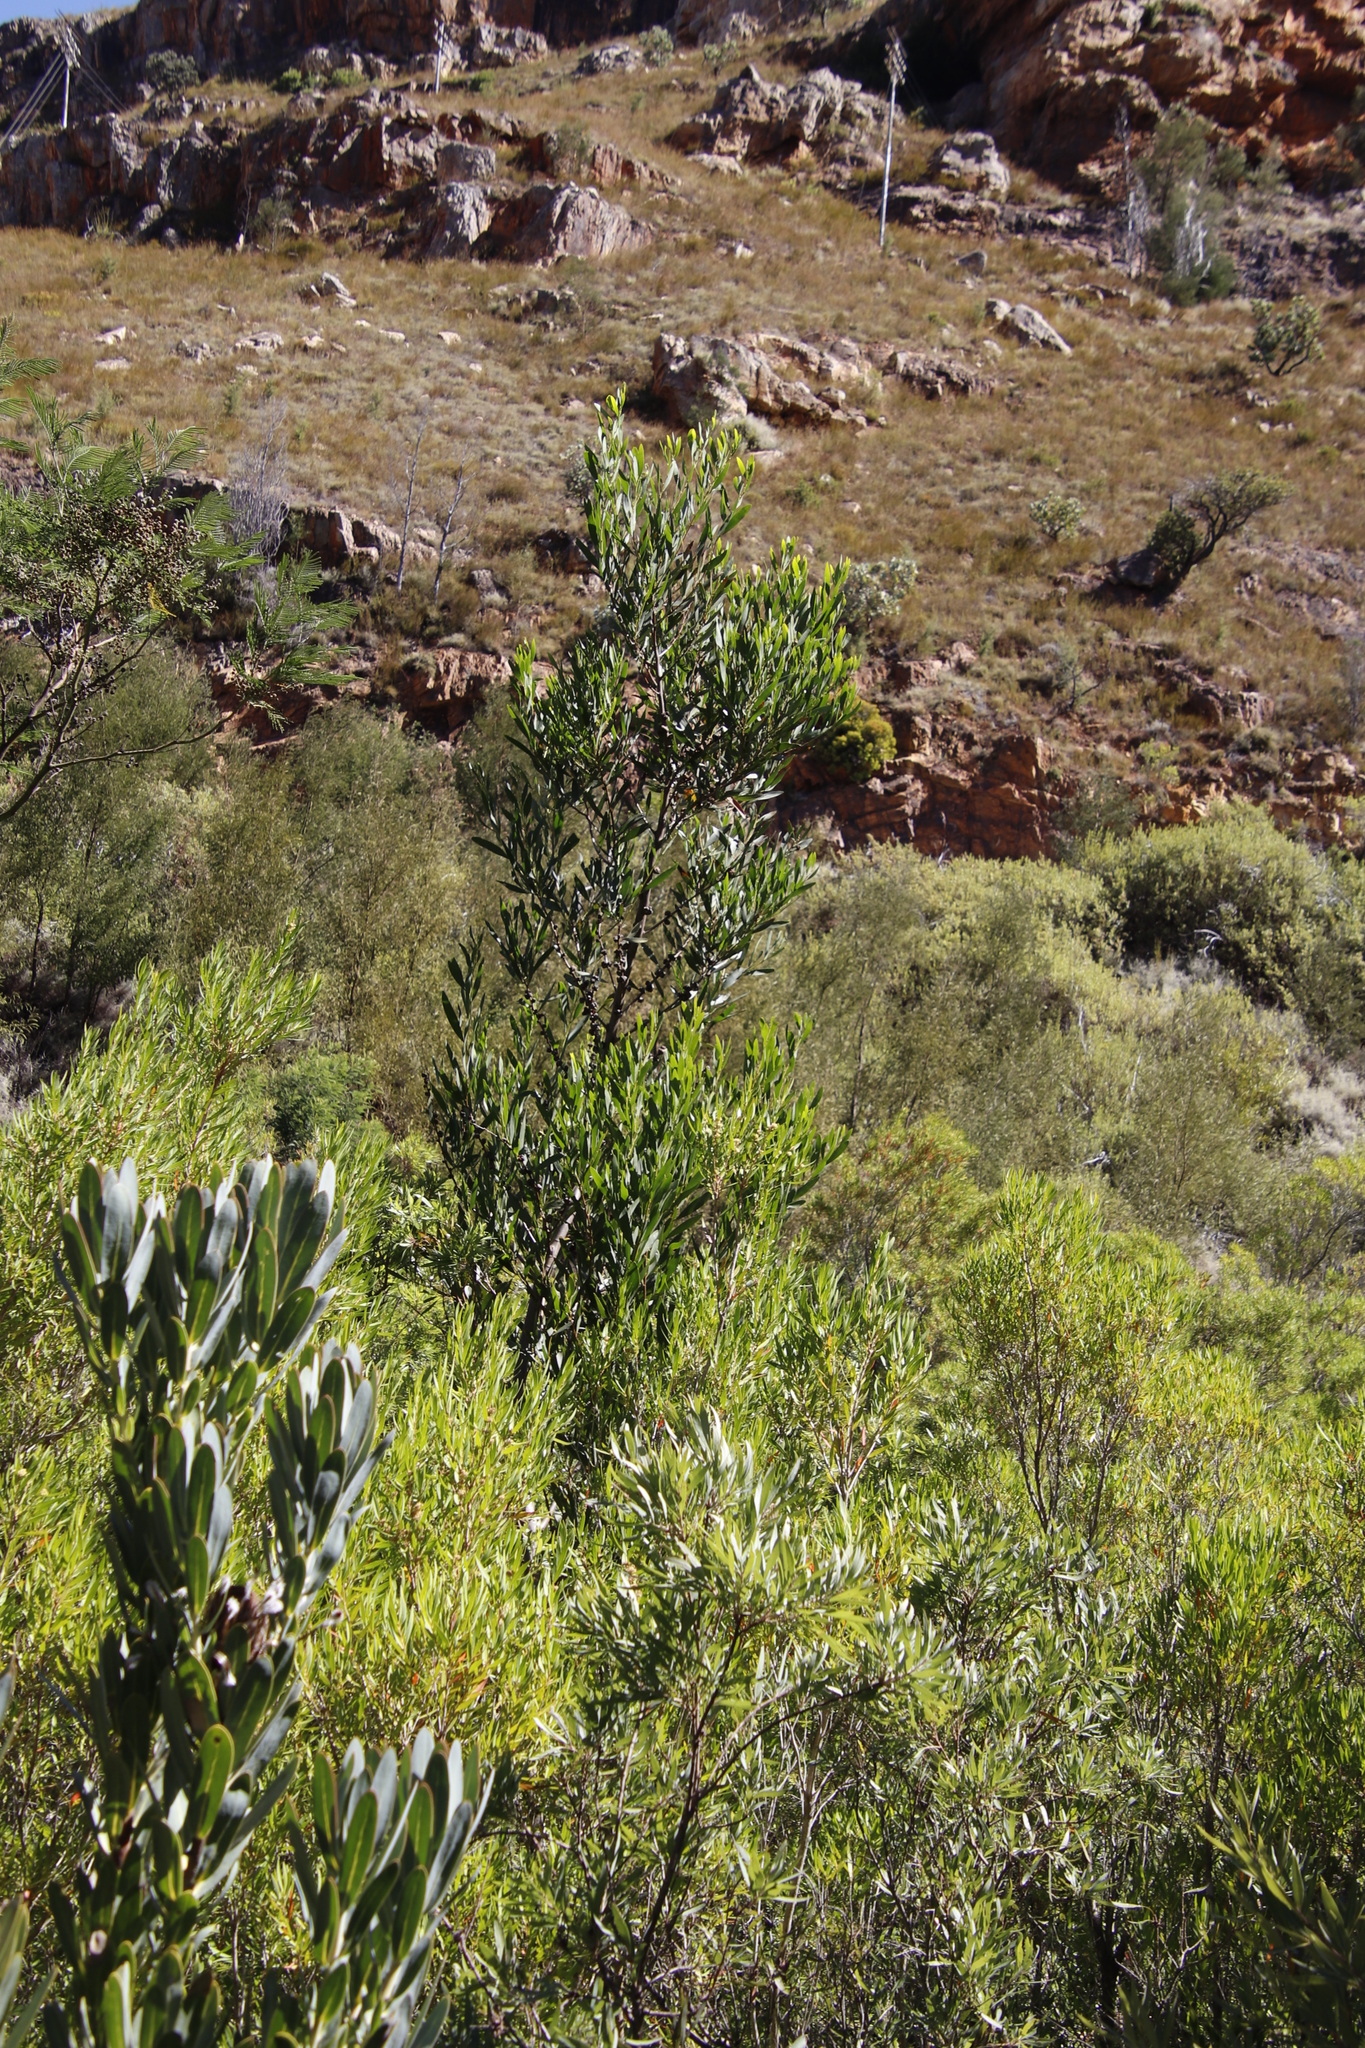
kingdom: Plantae
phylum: Tracheophyta
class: Magnoliopsida
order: Fabales
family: Fabaceae
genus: Acacia
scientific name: Acacia melanoxylon
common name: Blackwood
